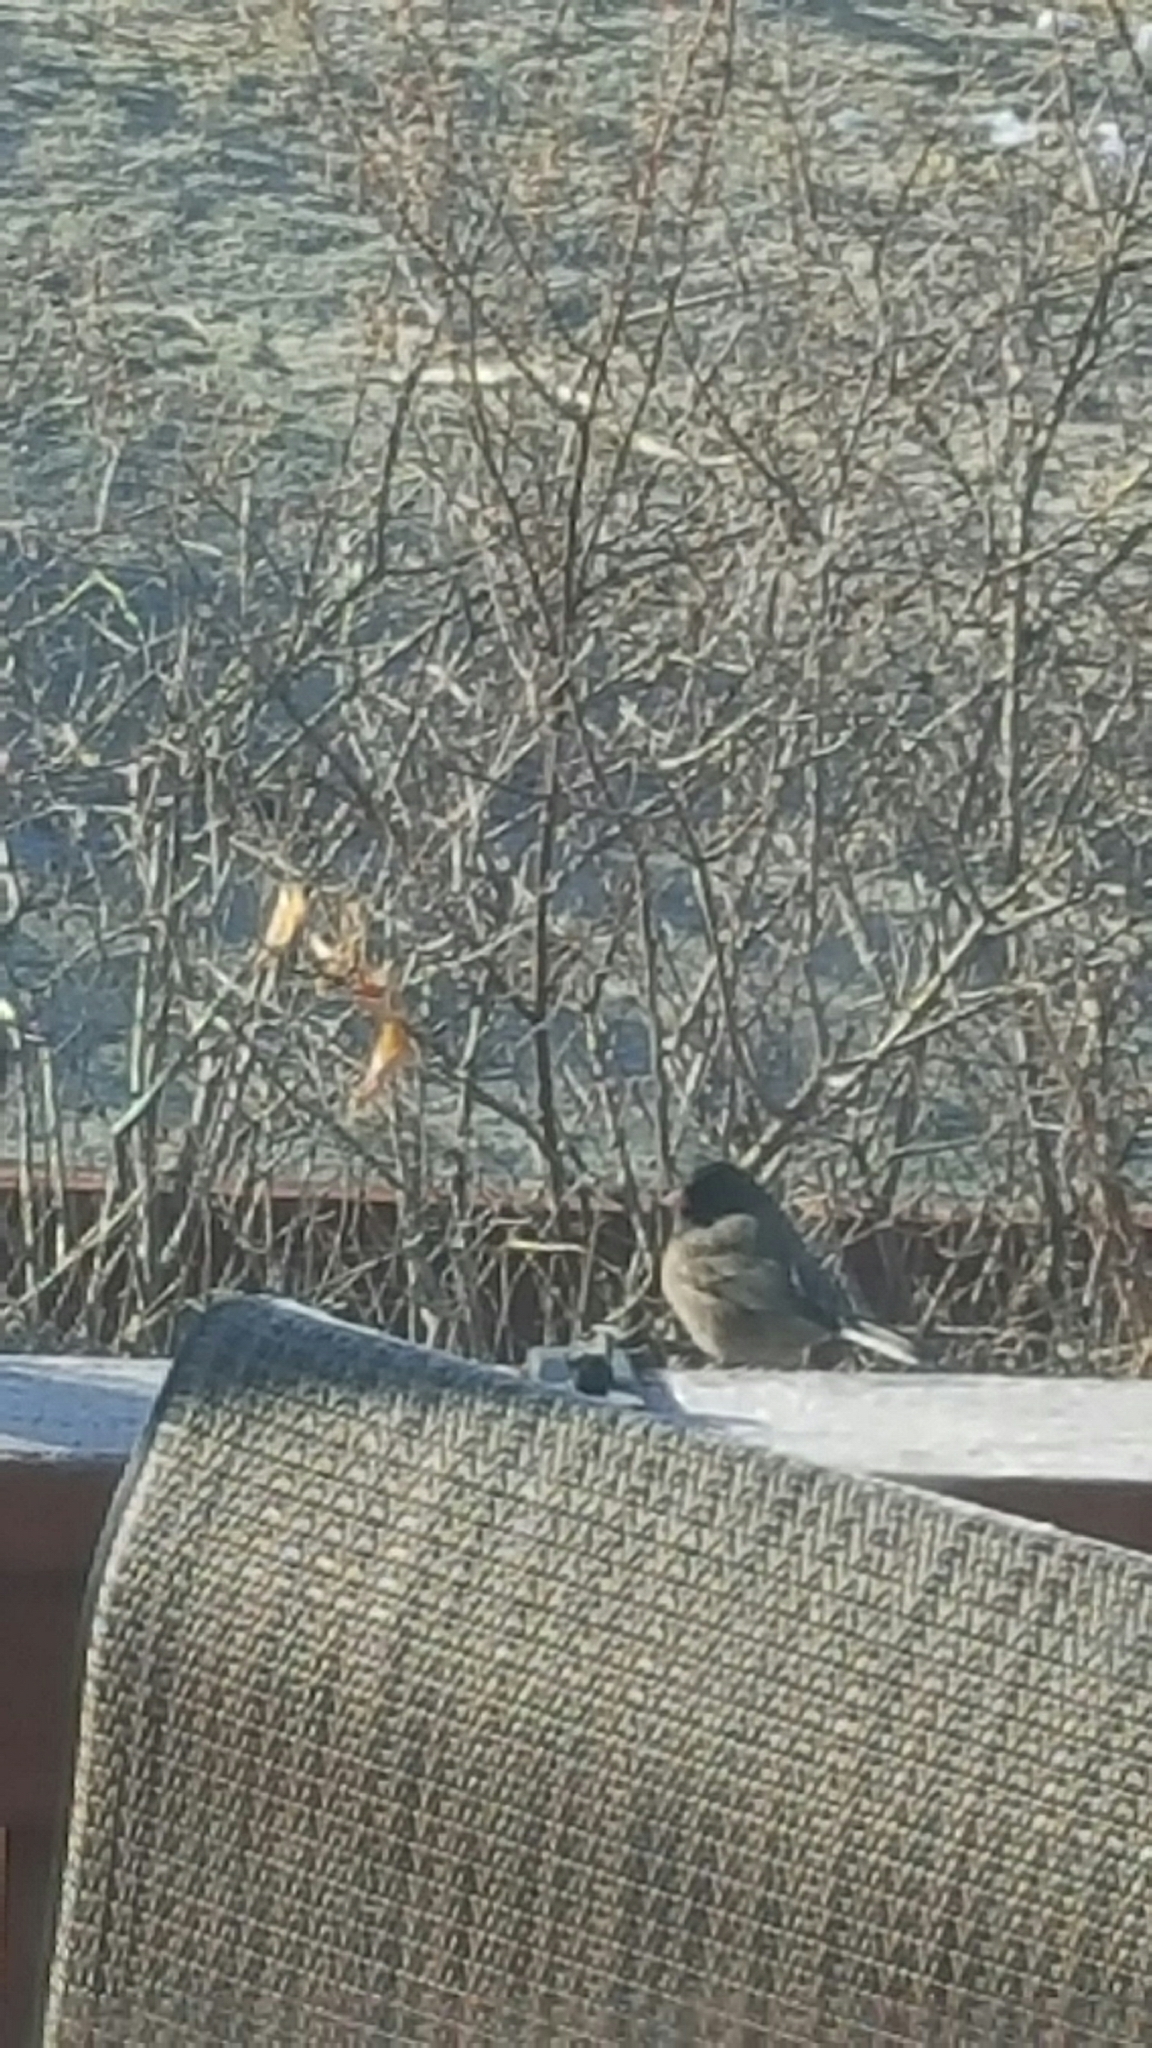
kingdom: Animalia
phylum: Chordata
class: Aves
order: Passeriformes
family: Passerellidae
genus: Junco
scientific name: Junco hyemalis
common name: Dark-eyed junco
